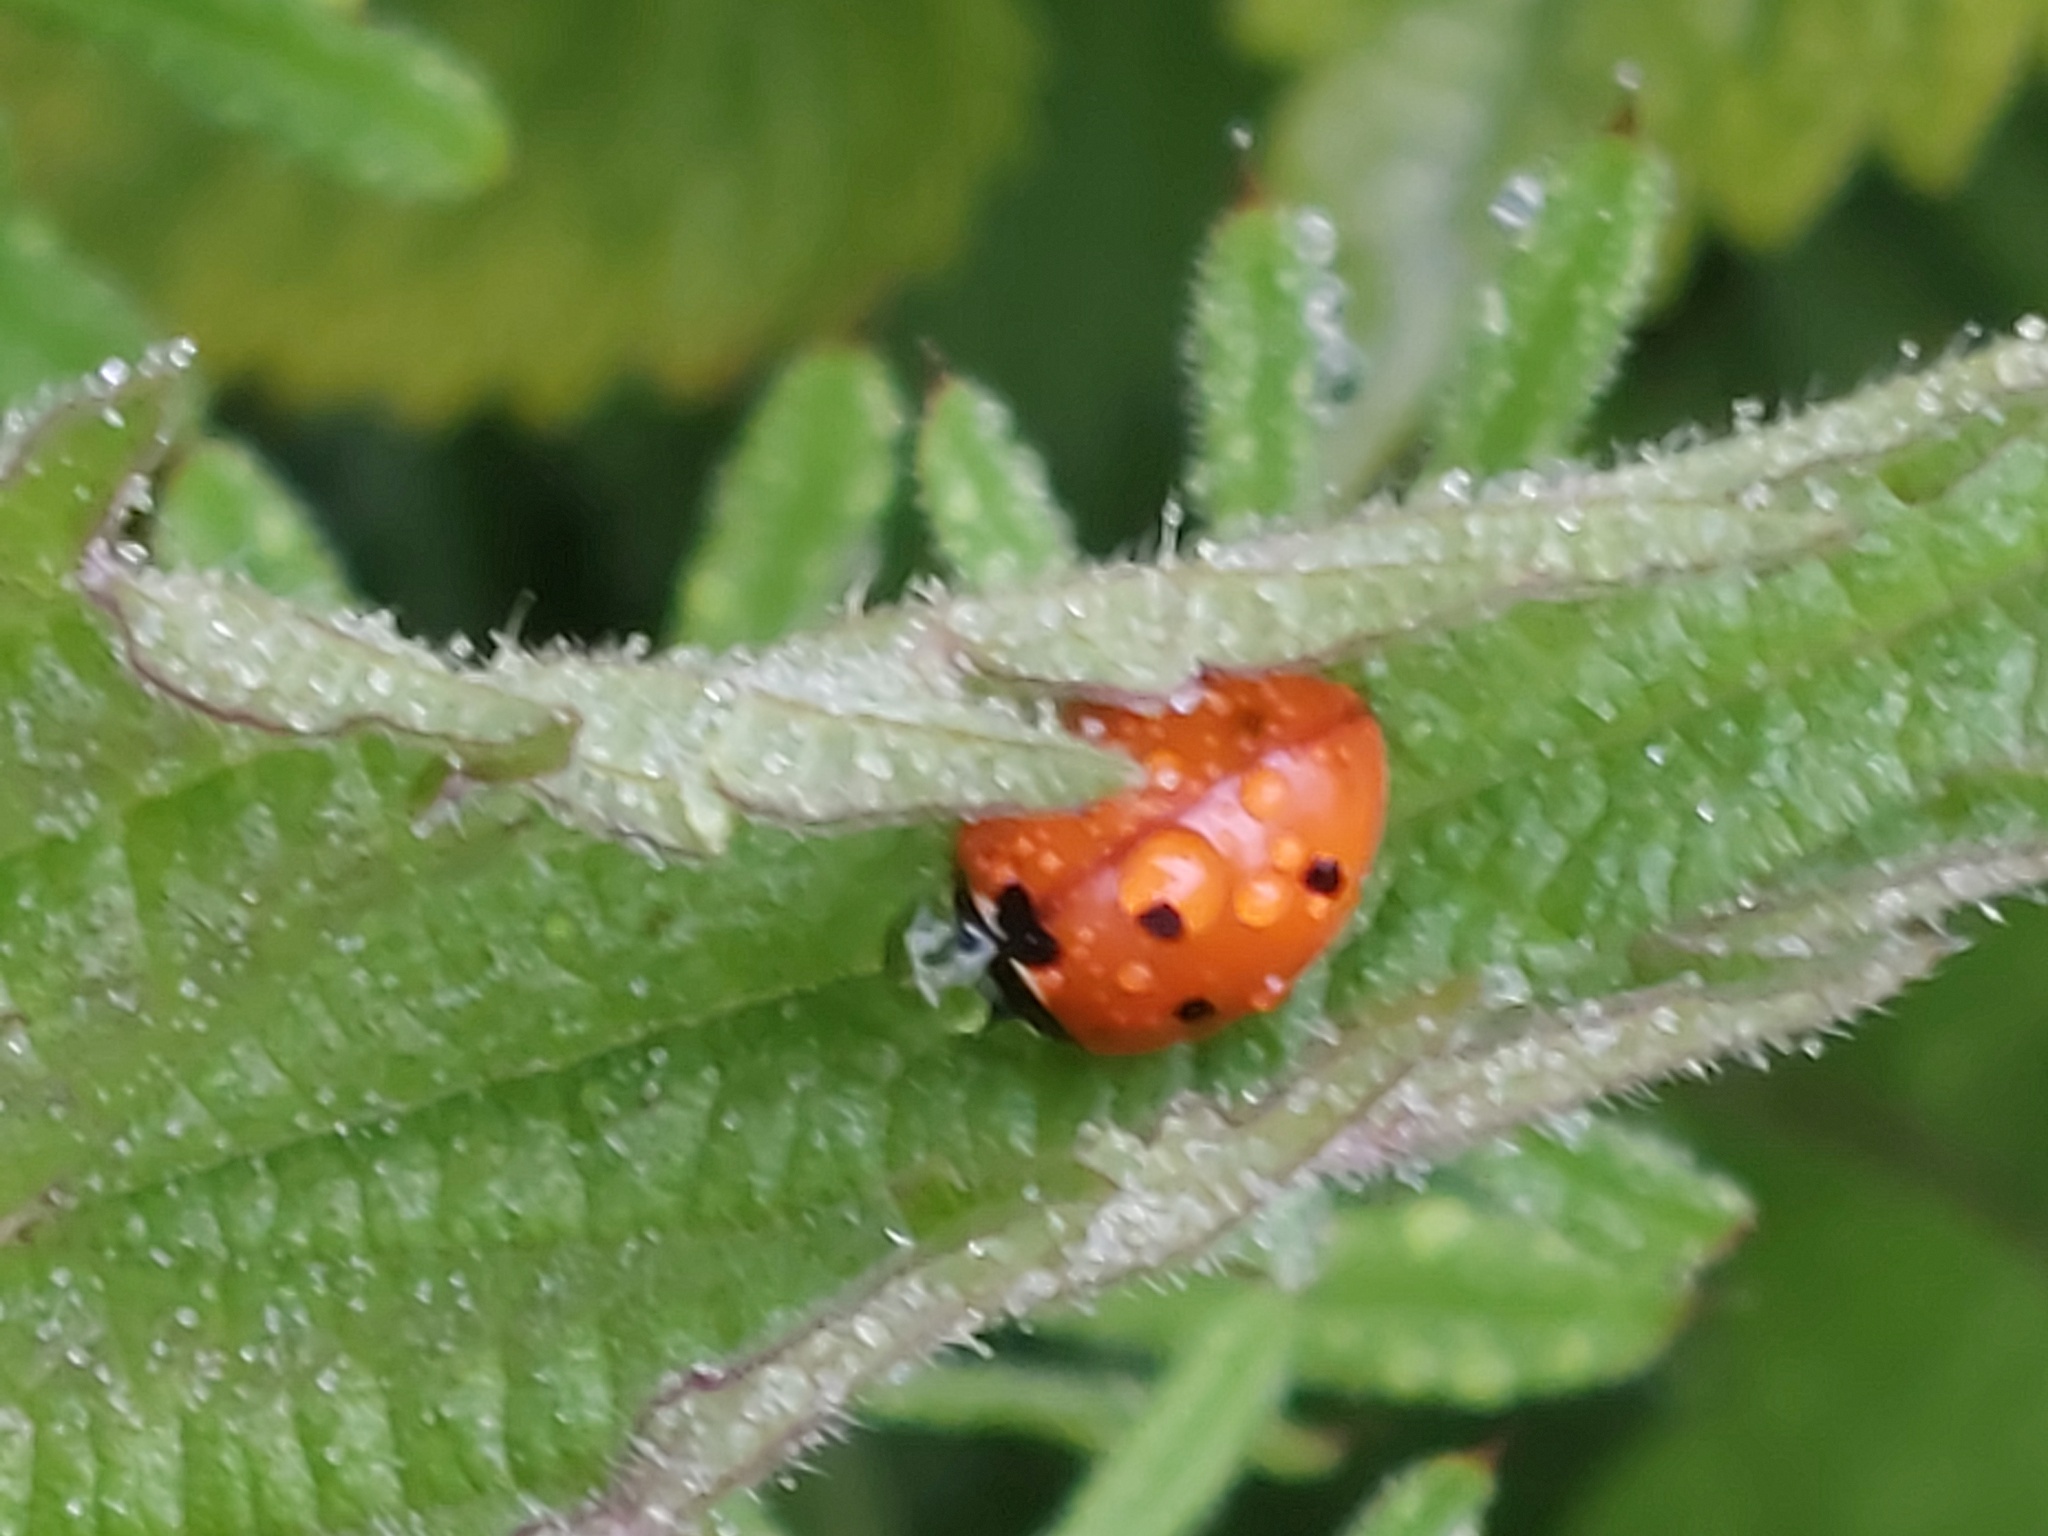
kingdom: Animalia
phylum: Arthropoda
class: Insecta
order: Coleoptera
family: Coccinellidae
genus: Coccinella
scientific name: Coccinella septempunctata
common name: Sevenspotted lady beetle
